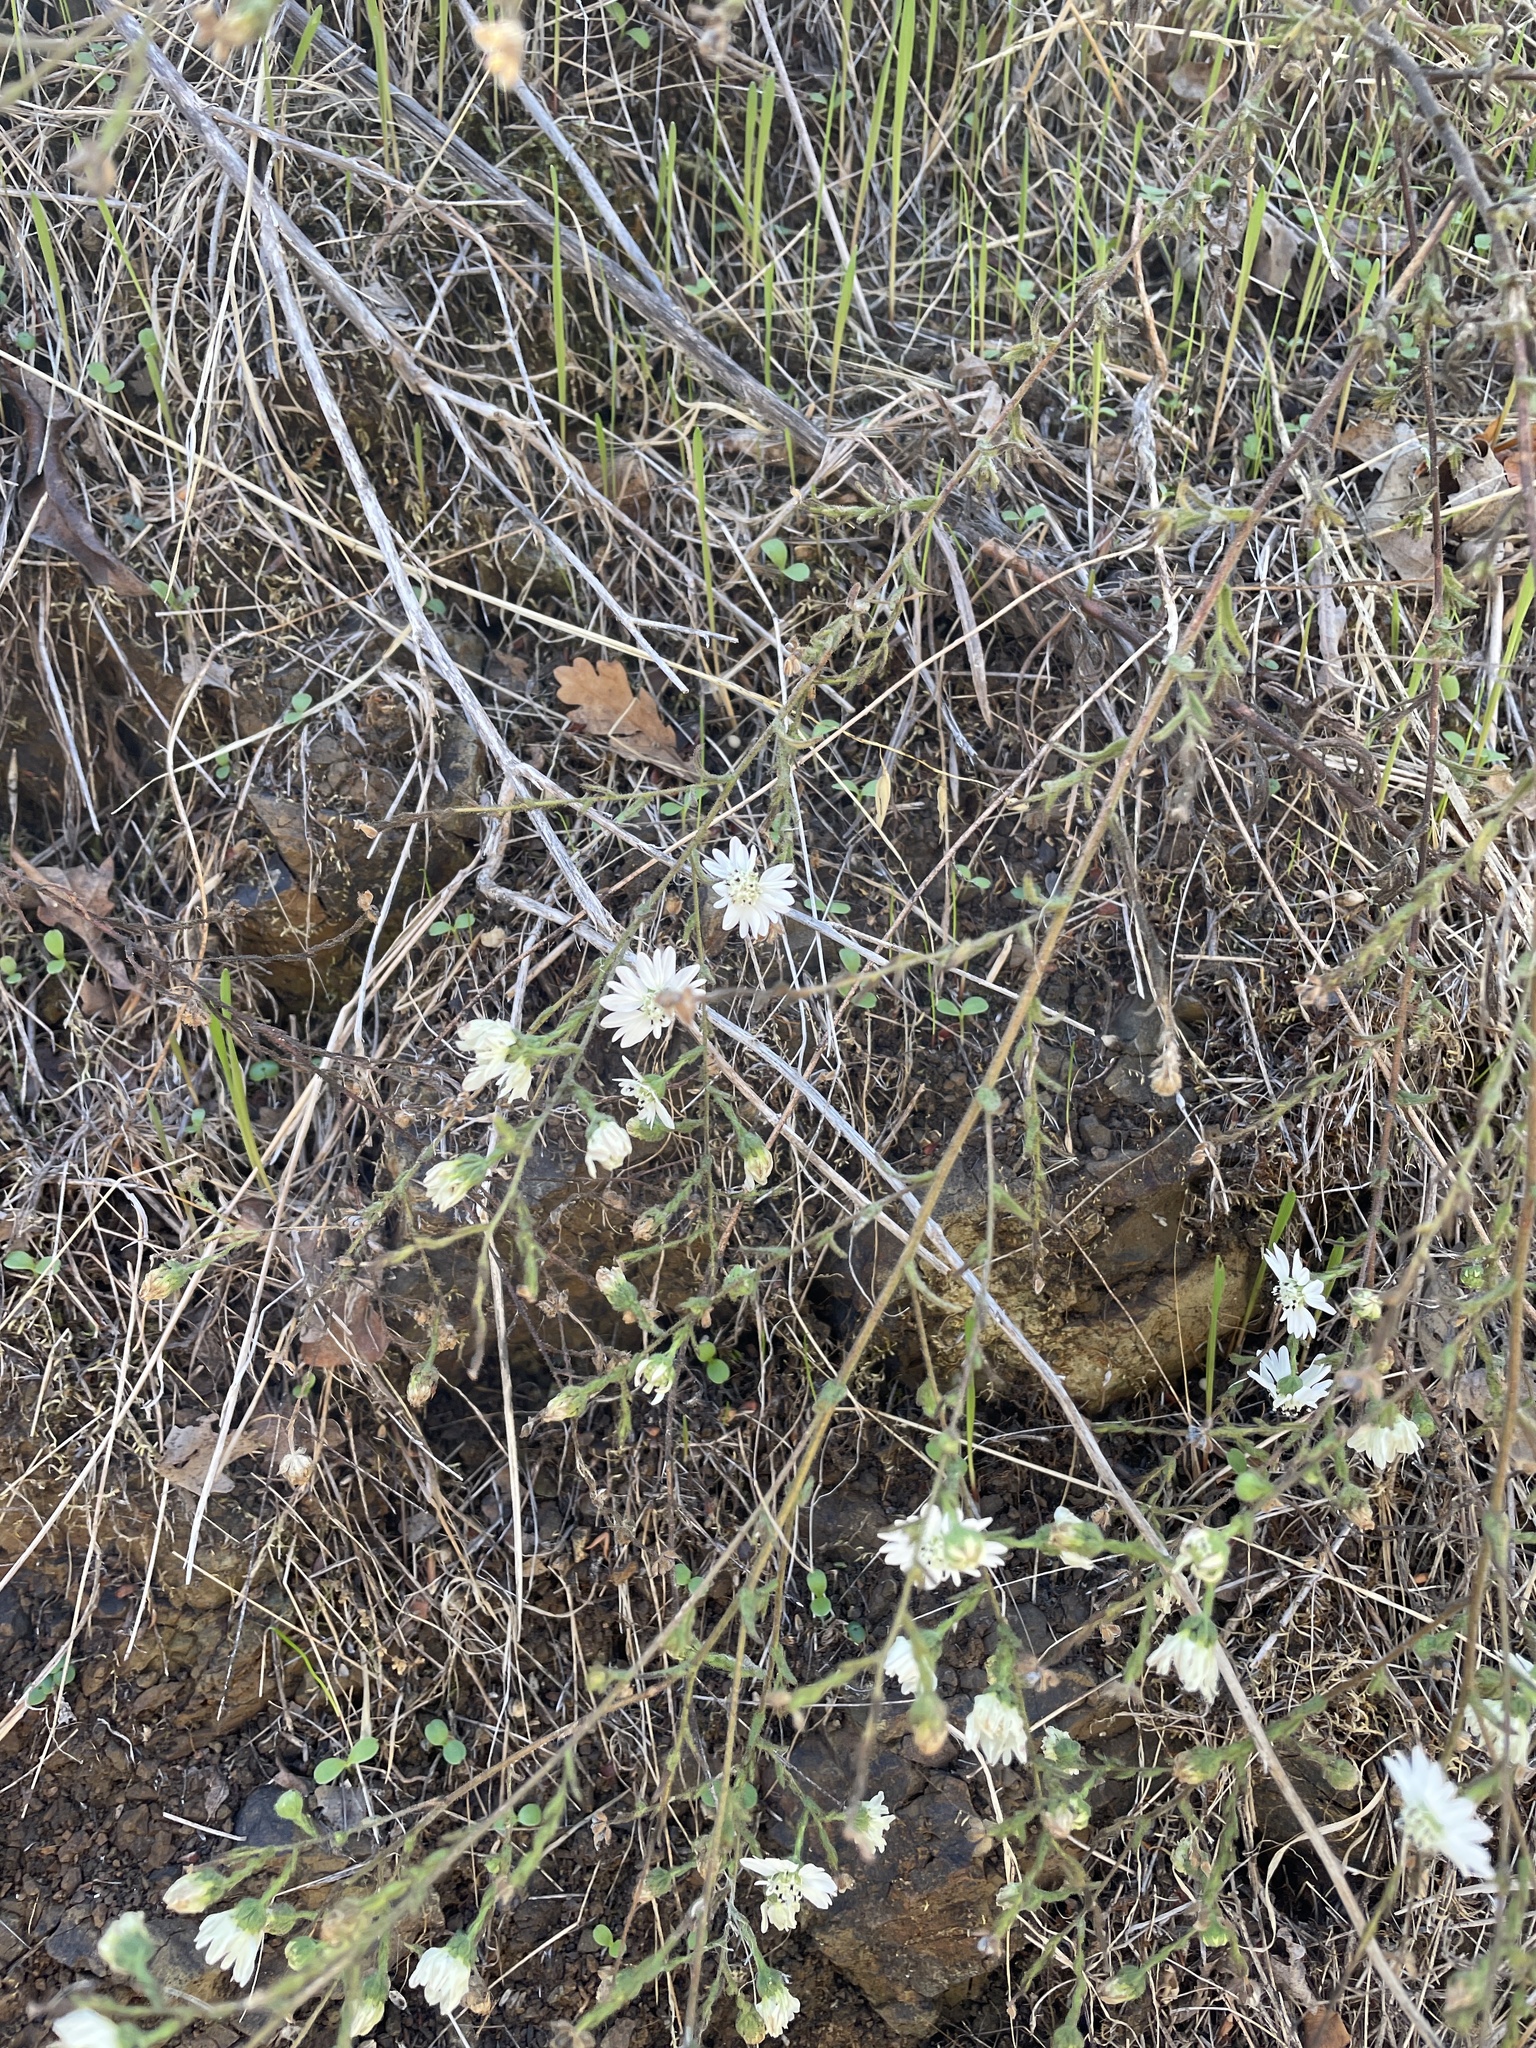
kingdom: Plantae
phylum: Tracheophyta
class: Magnoliopsida
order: Asterales
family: Asteraceae
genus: Hemizonia
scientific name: Hemizonia congesta
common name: Hayfield tarweed
